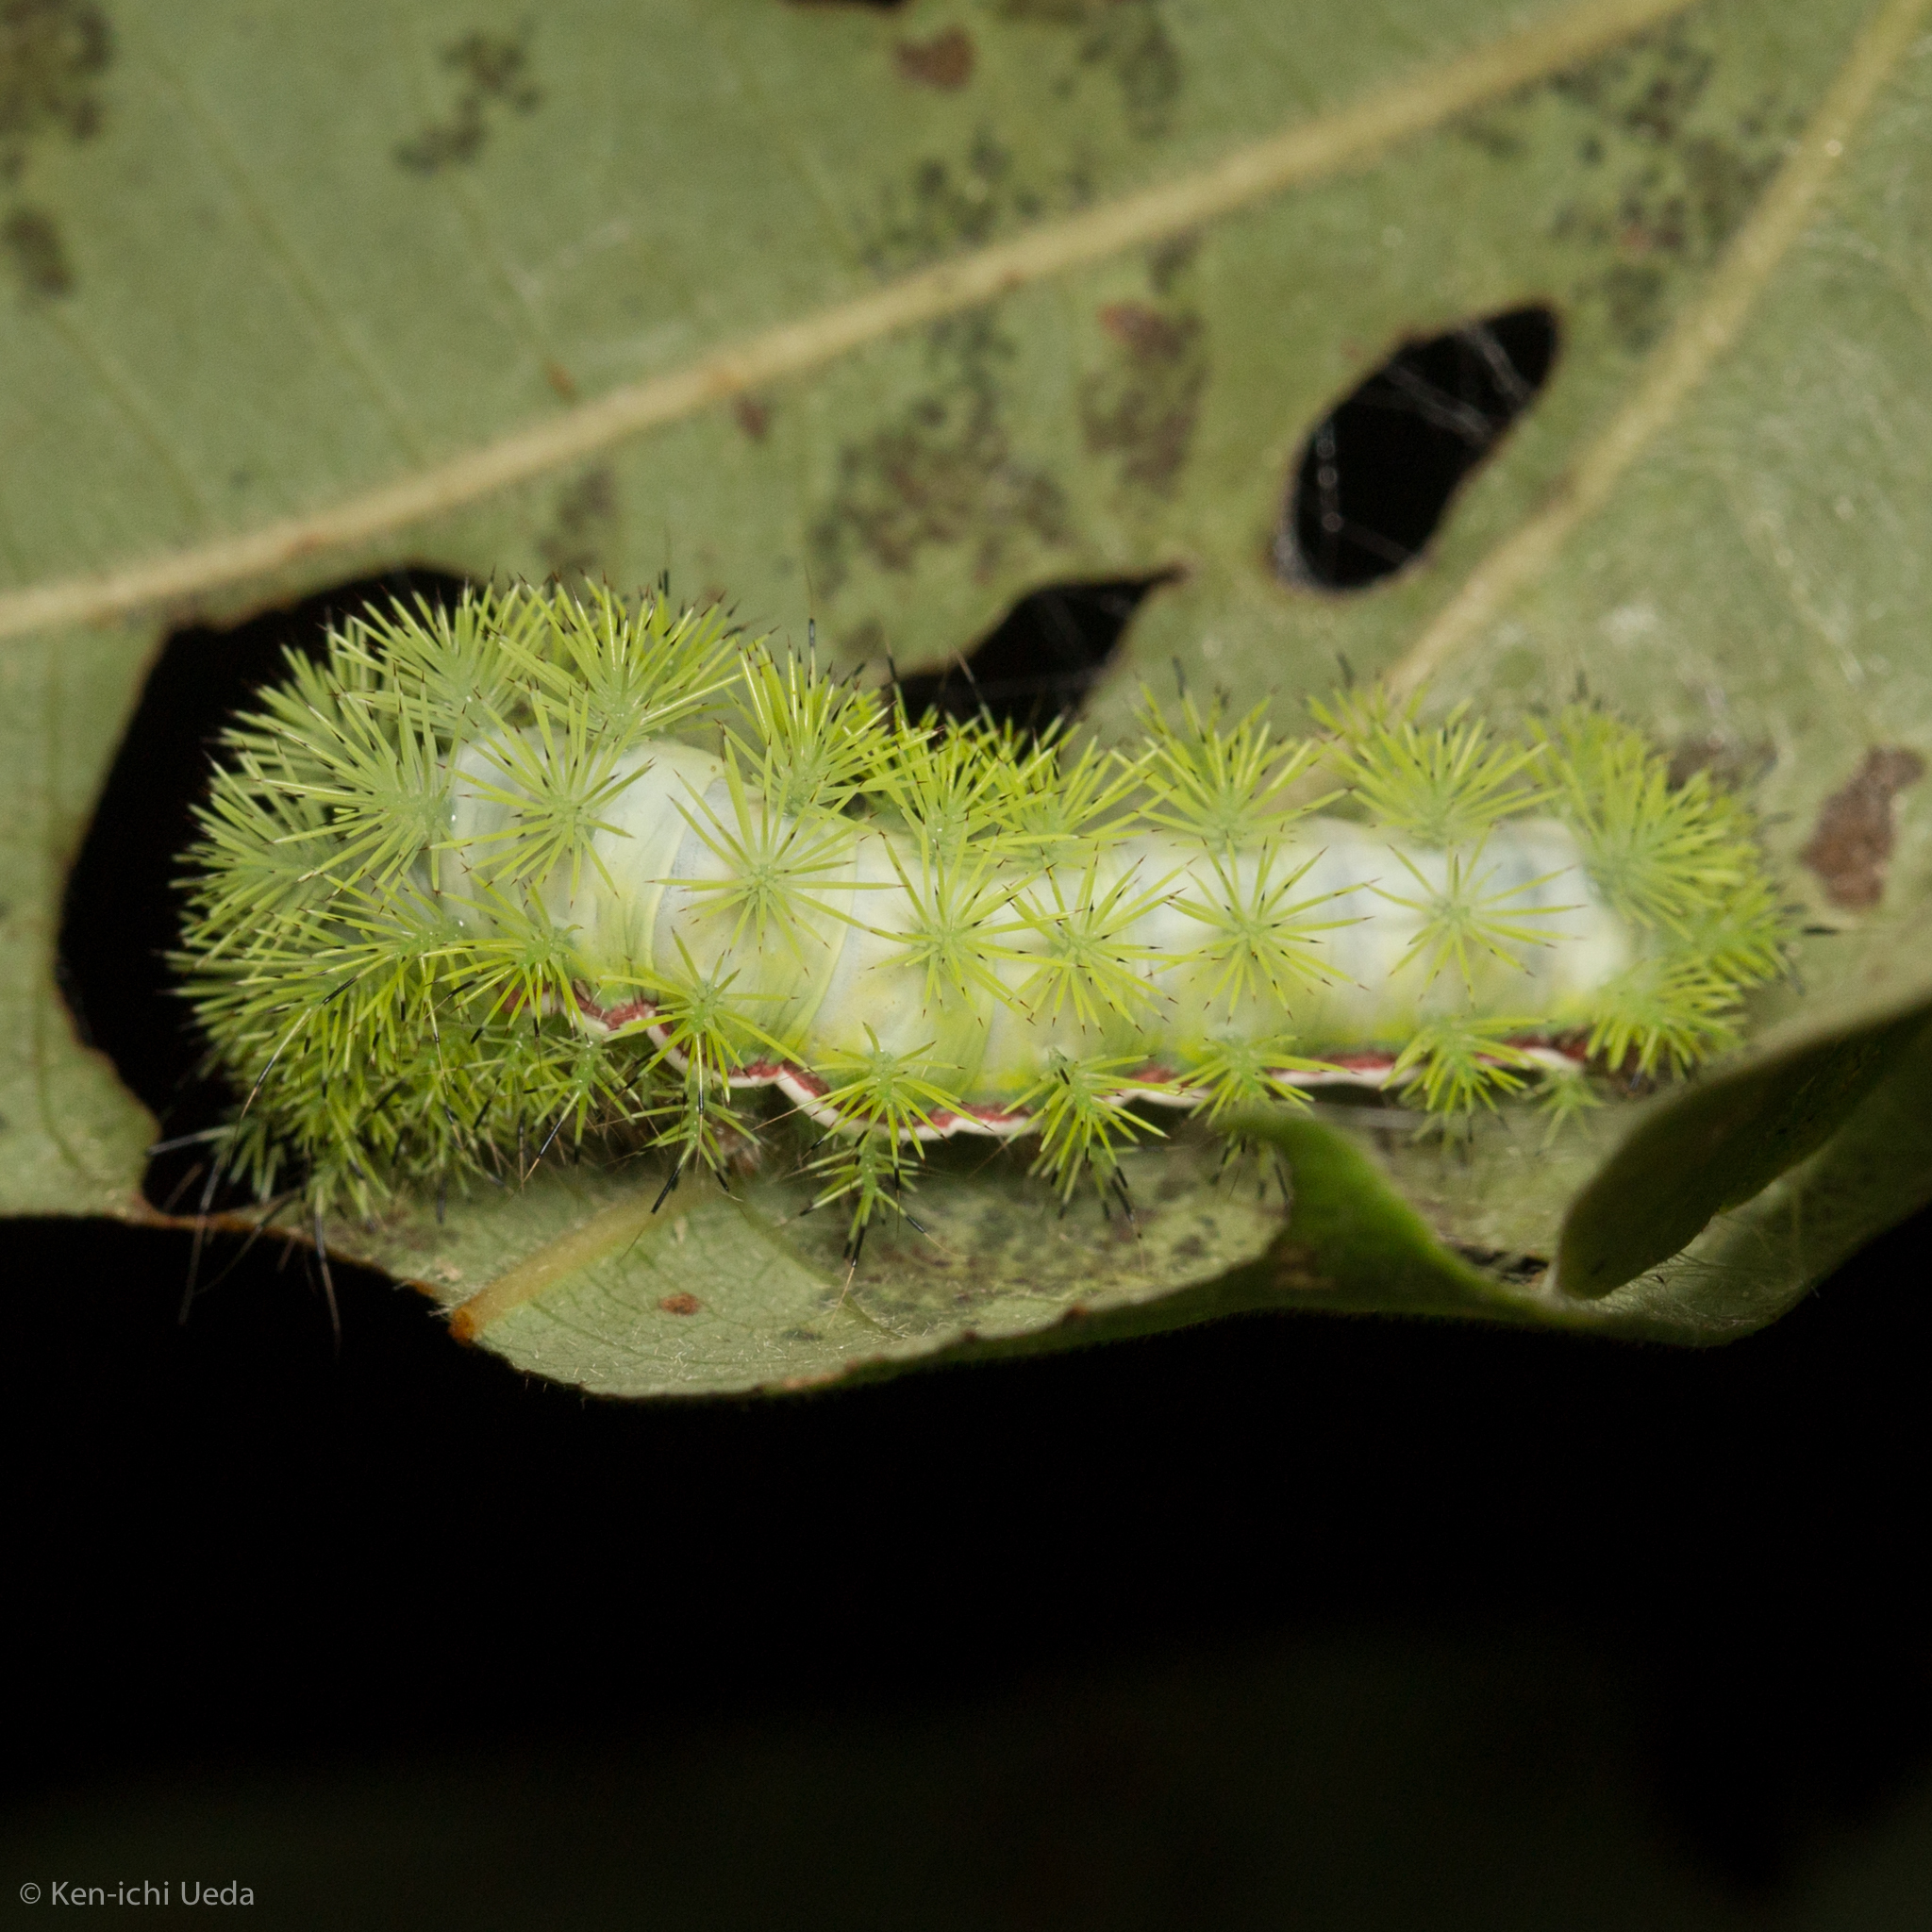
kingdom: Animalia
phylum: Arthropoda
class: Insecta
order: Lepidoptera
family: Saturniidae
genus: Automeris
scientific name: Automeris io
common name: Io moth
